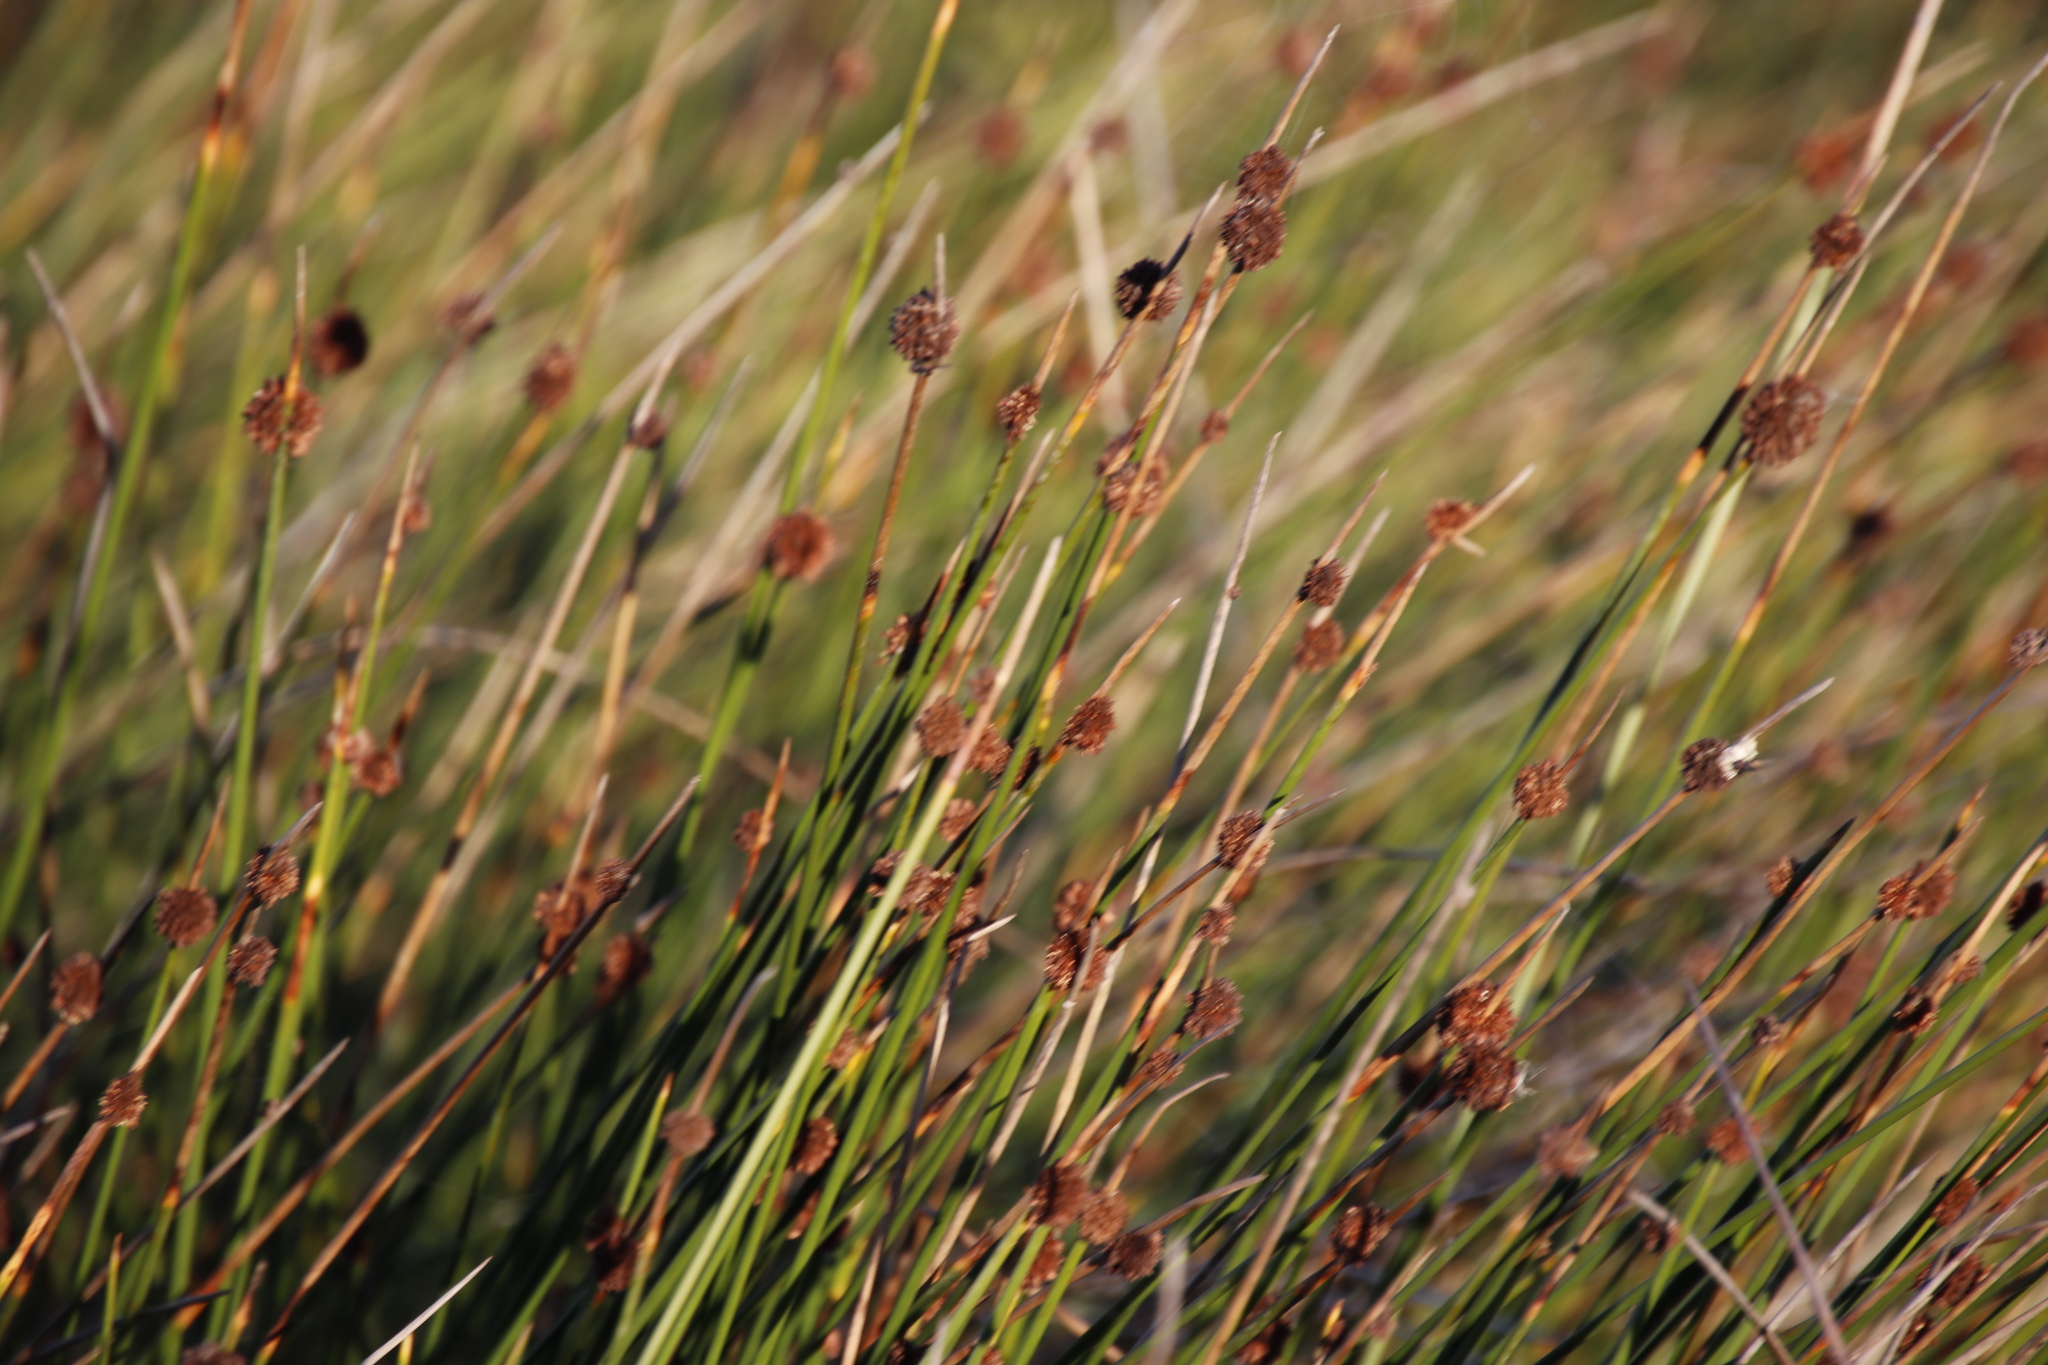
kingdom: Plantae
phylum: Tracheophyta
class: Liliopsida
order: Poales
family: Cyperaceae
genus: Ficinia
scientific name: Ficinia nodosa
